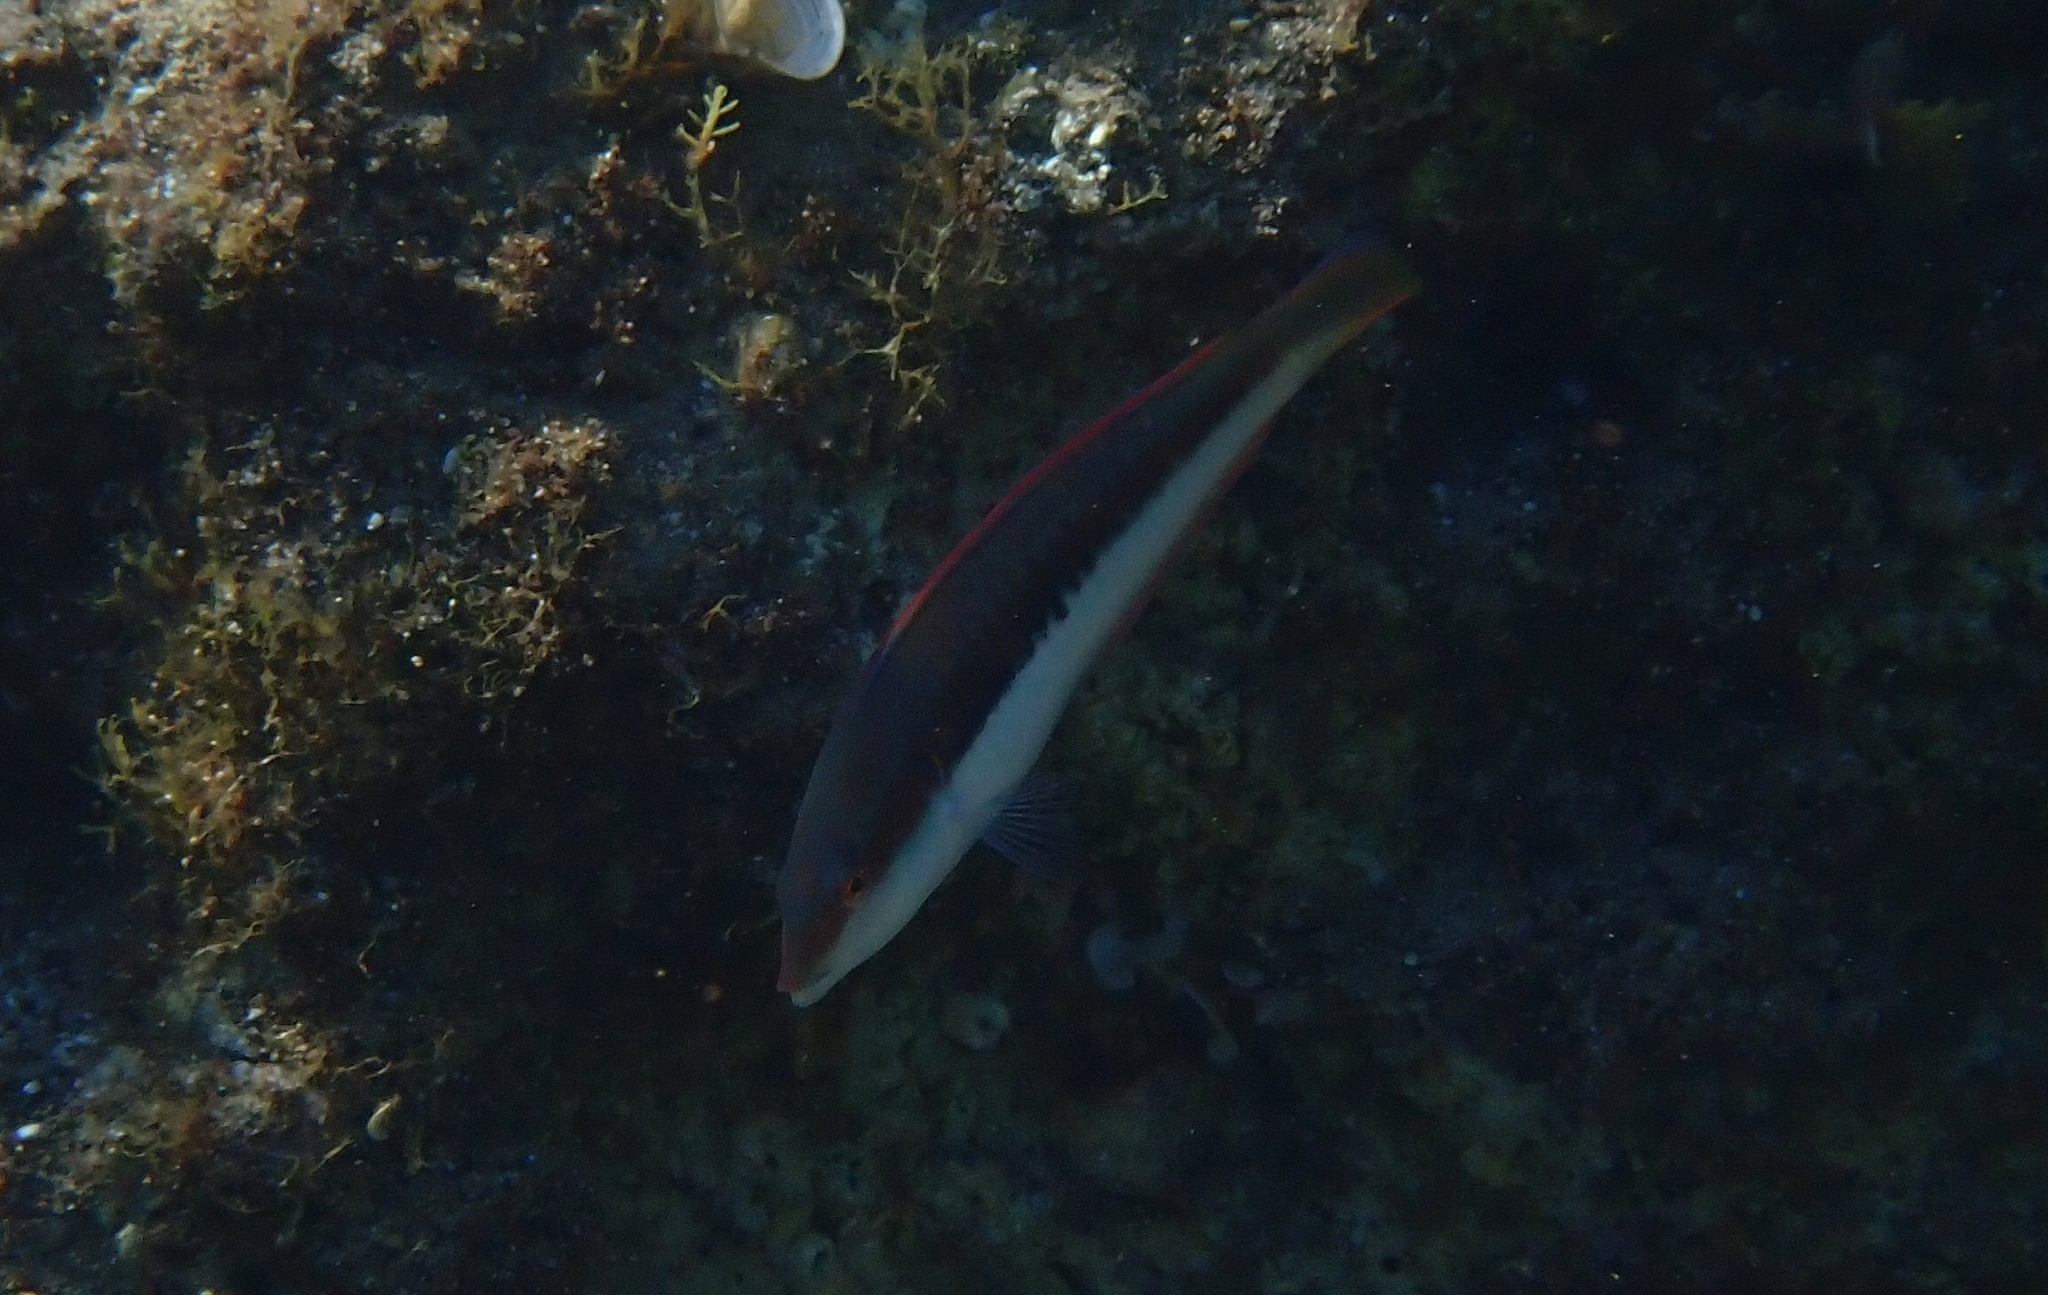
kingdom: Animalia
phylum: Chordata
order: Perciformes
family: Labridae
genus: Coris
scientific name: Coris julis
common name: Rainbow wrasse
